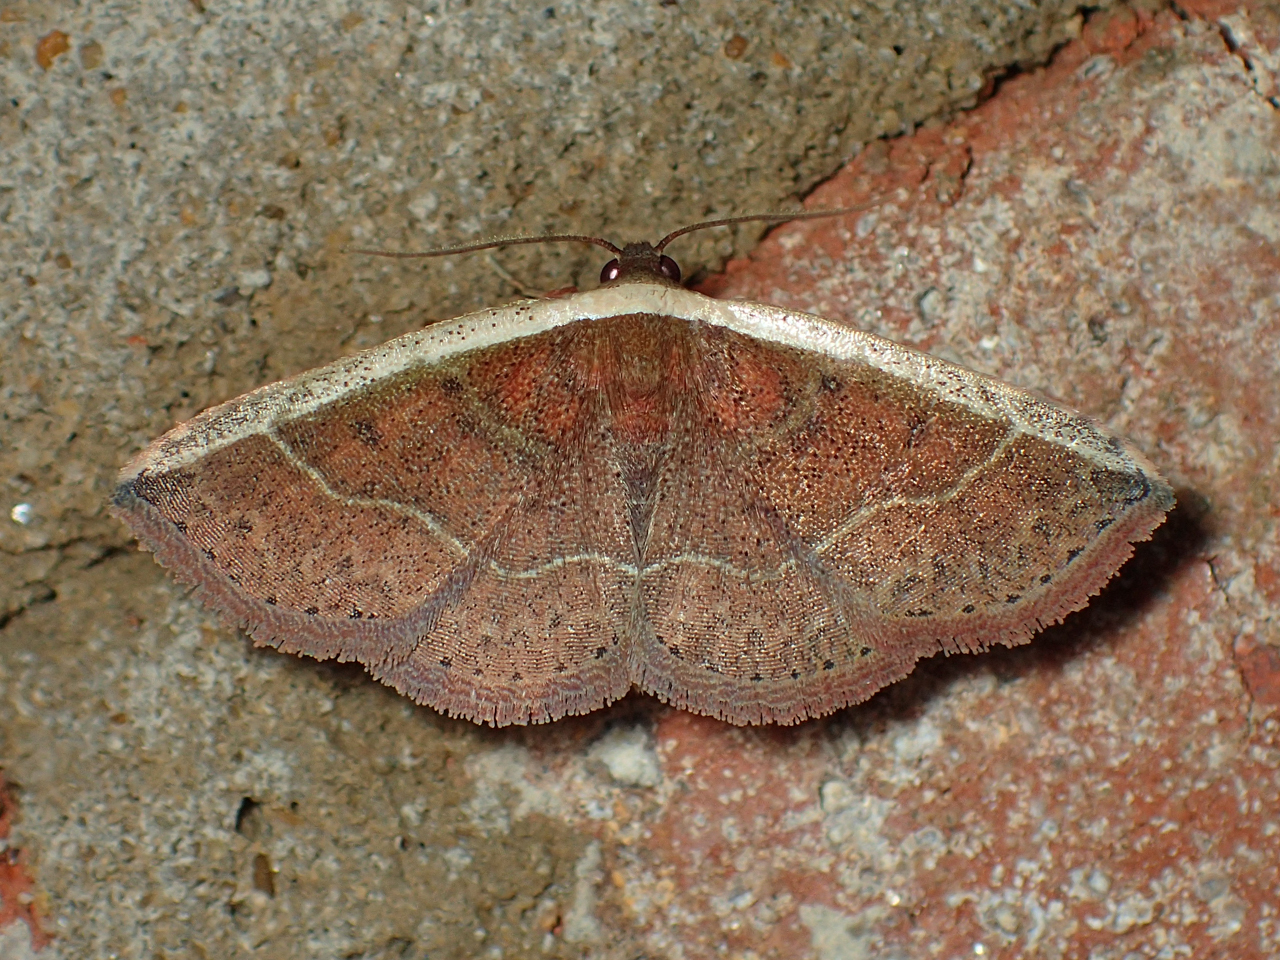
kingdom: Animalia
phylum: Arthropoda
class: Insecta
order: Lepidoptera
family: Noctuidae
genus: Ozarba
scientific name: Ozarba albocostaliata
